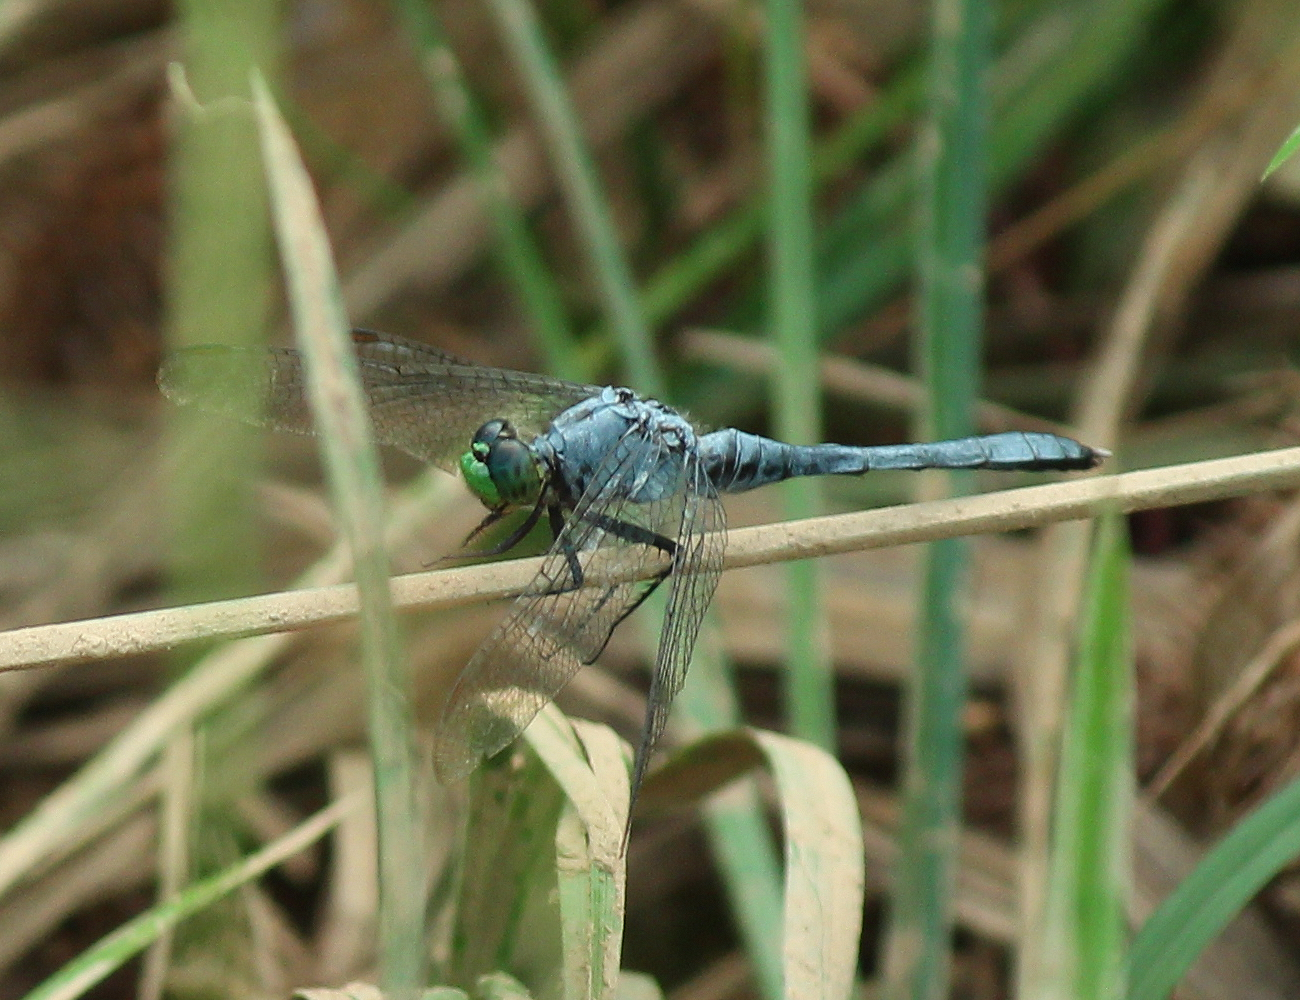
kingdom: Animalia
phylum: Arthropoda
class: Insecta
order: Odonata
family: Libellulidae
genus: Erythemis
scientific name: Erythemis simplicicollis
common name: Eastern pondhawk
